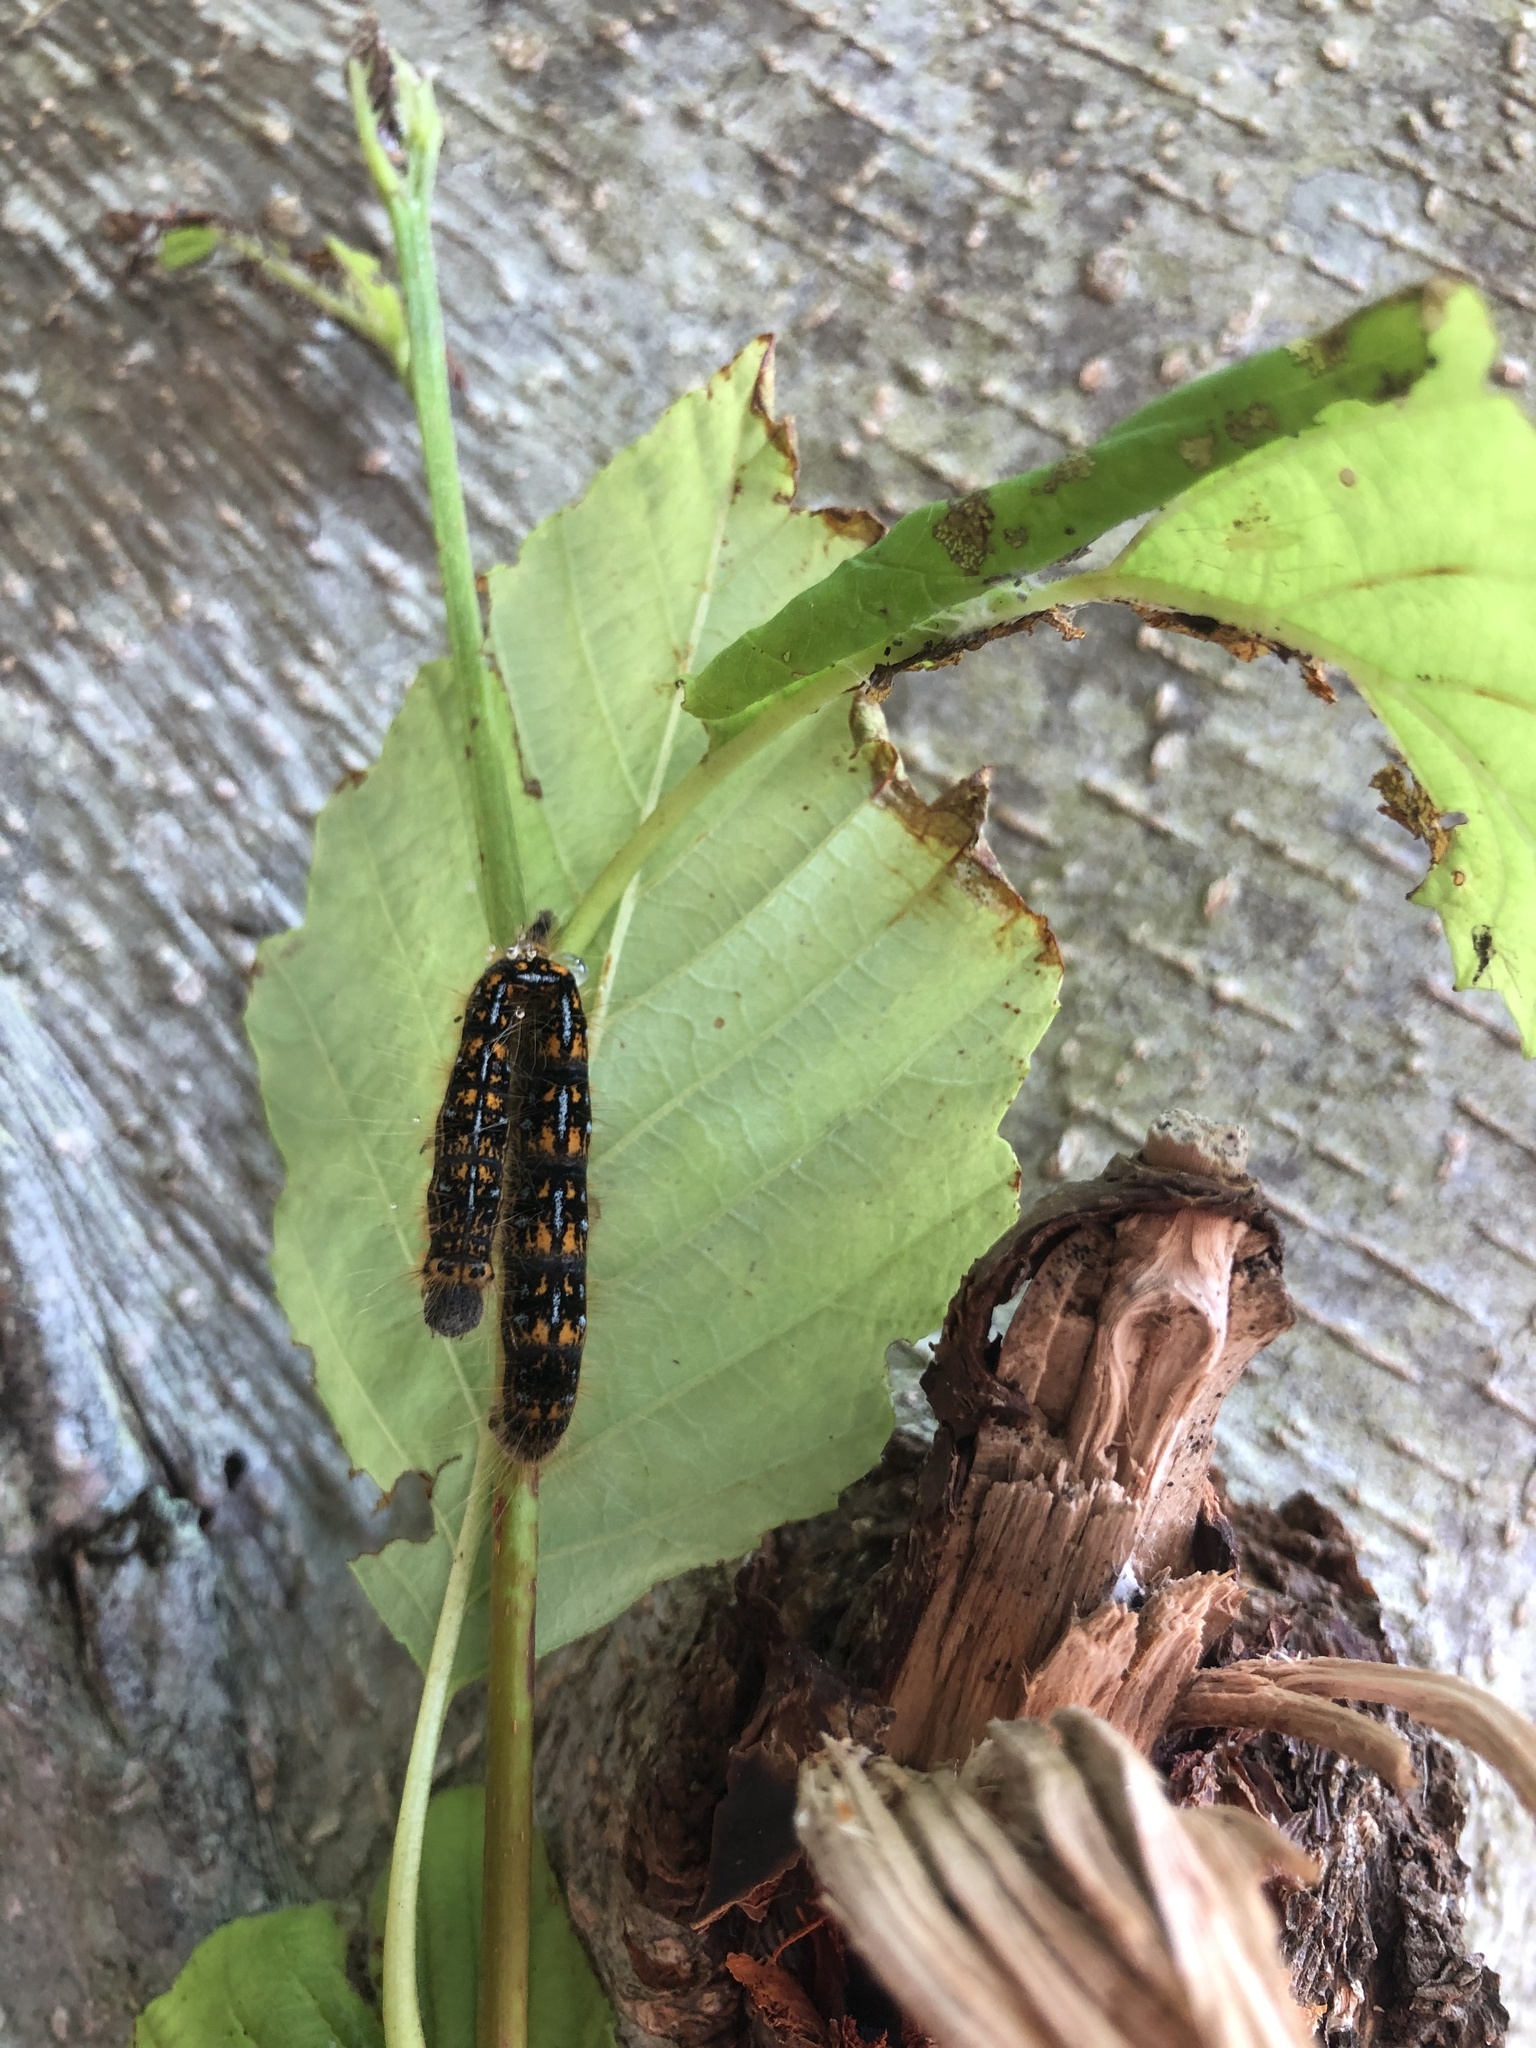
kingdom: Animalia
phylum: Arthropoda
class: Insecta
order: Lepidoptera
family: Lasiocampidae
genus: Malacosoma
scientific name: Malacosoma californica
